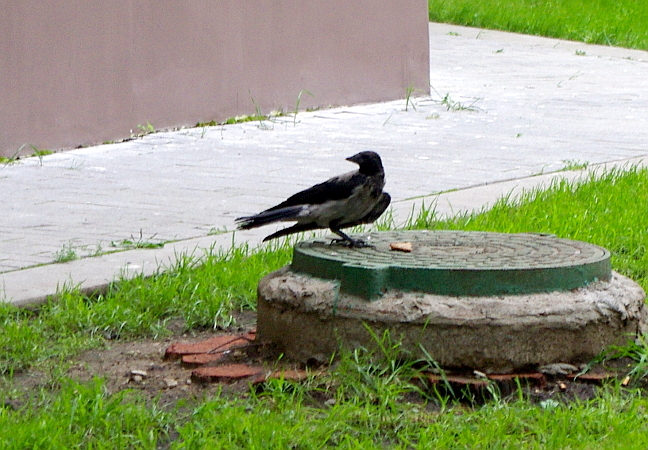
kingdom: Animalia
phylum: Chordata
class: Aves
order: Passeriformes
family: Corvidae
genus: Corvus
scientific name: Corvus cornix
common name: Hooded crow
